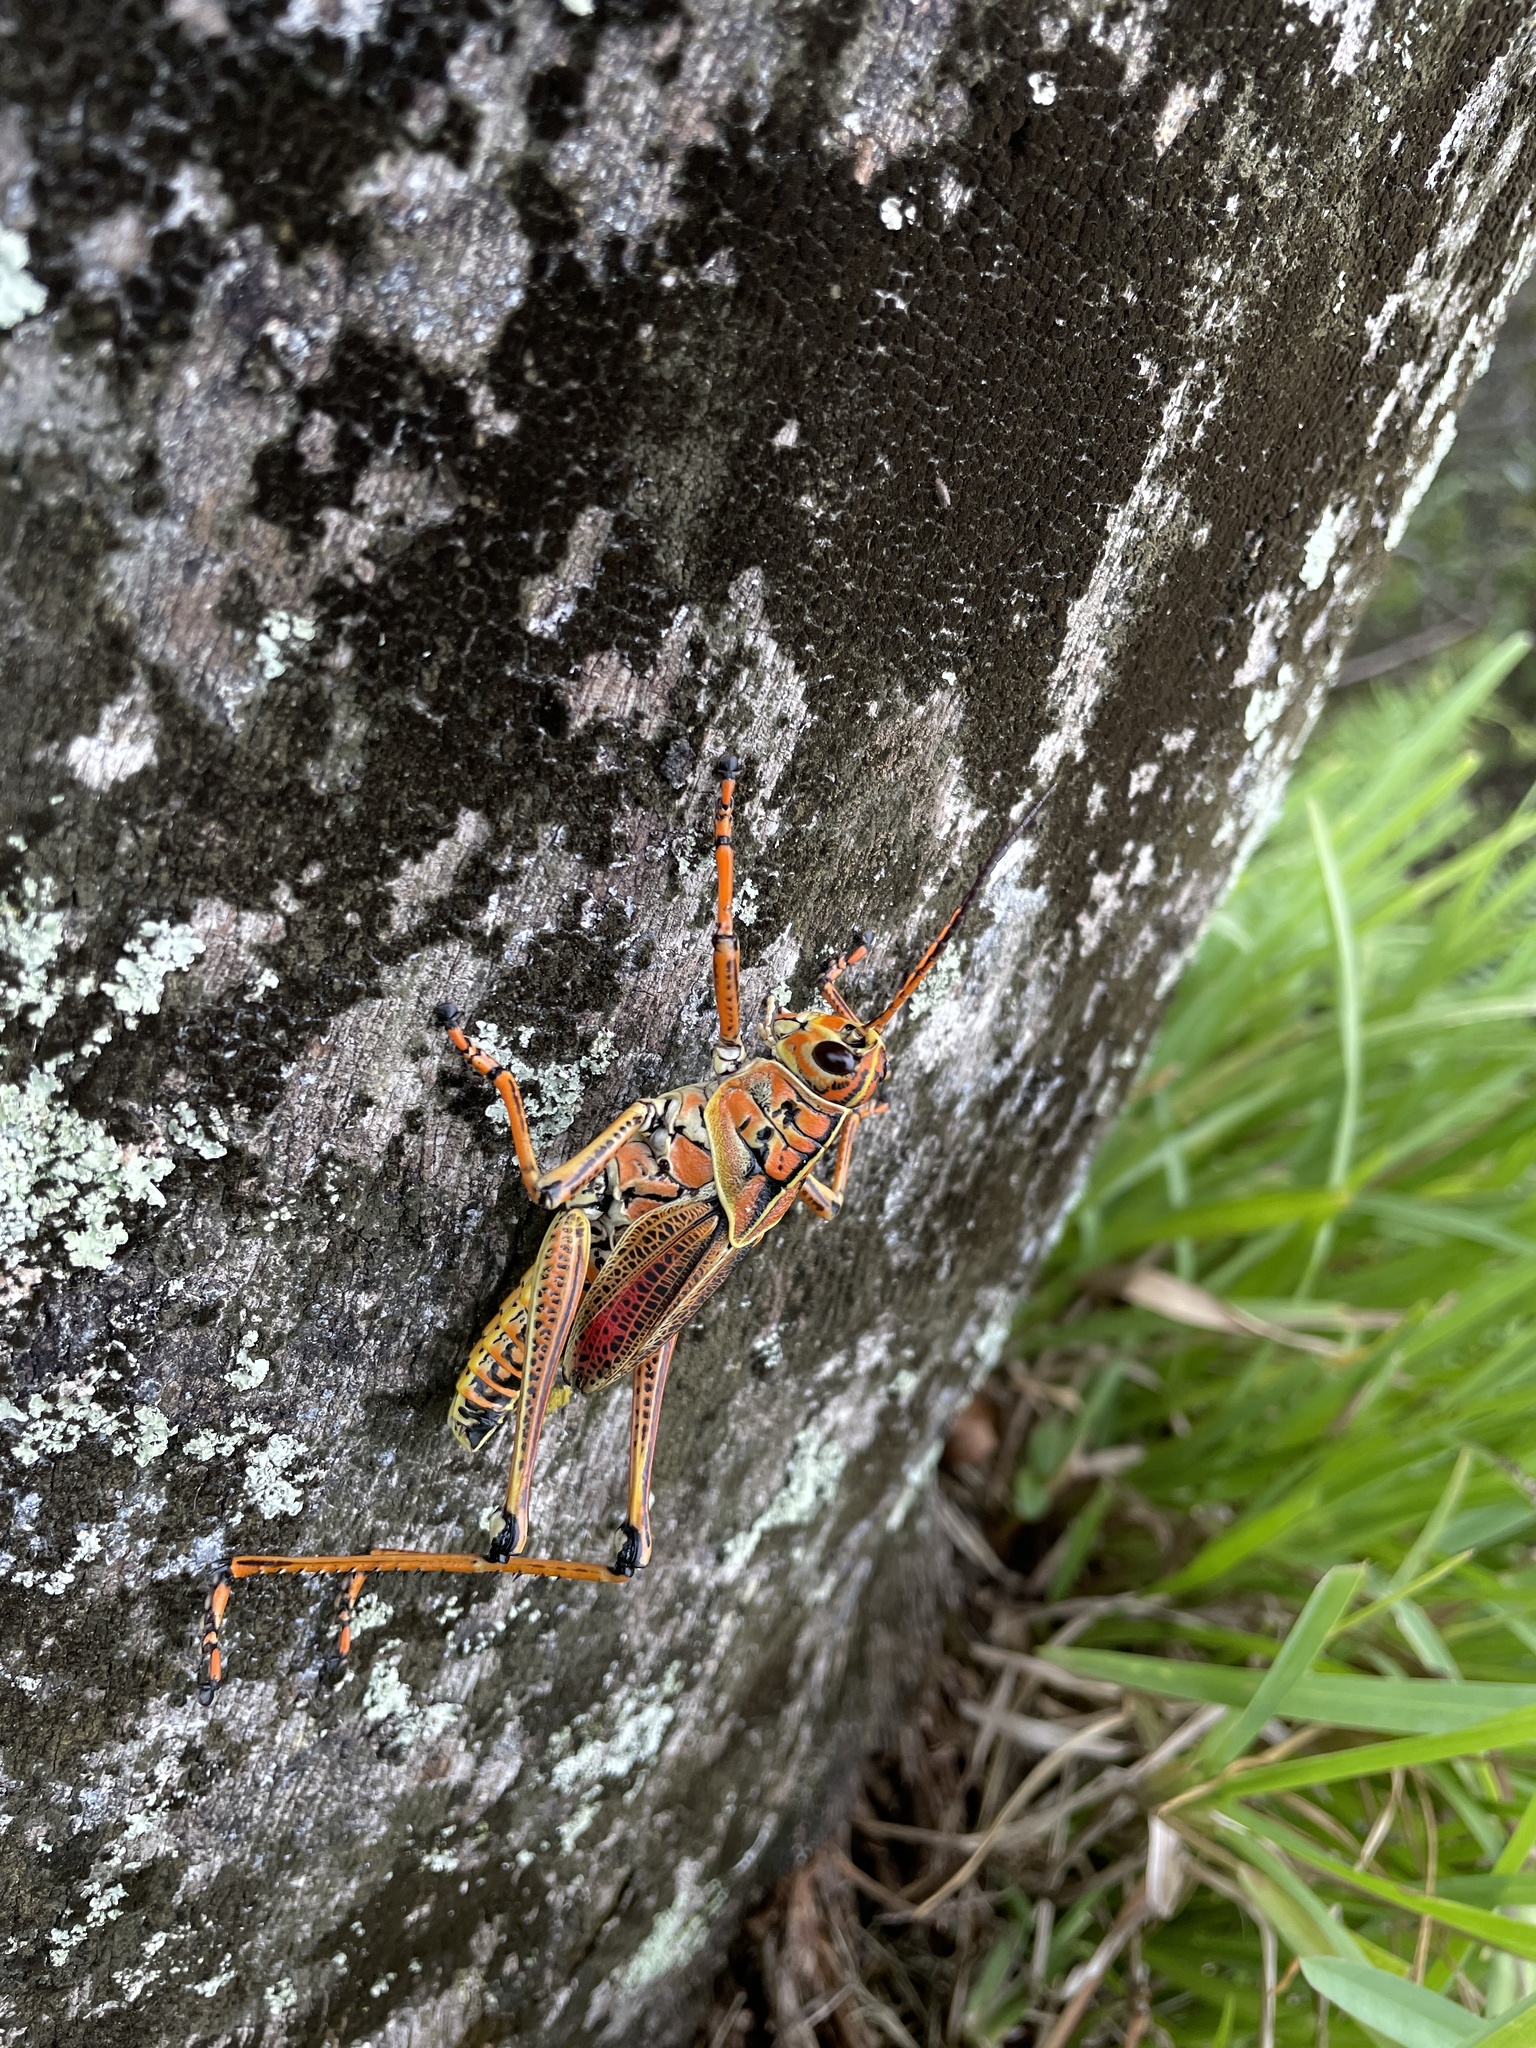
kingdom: Animalia
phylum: Arthropoda
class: Insecta
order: Orthoptera
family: Romaleidae
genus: Romalea
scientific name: Romalea microptera
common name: Eastern lubber grasshopper
